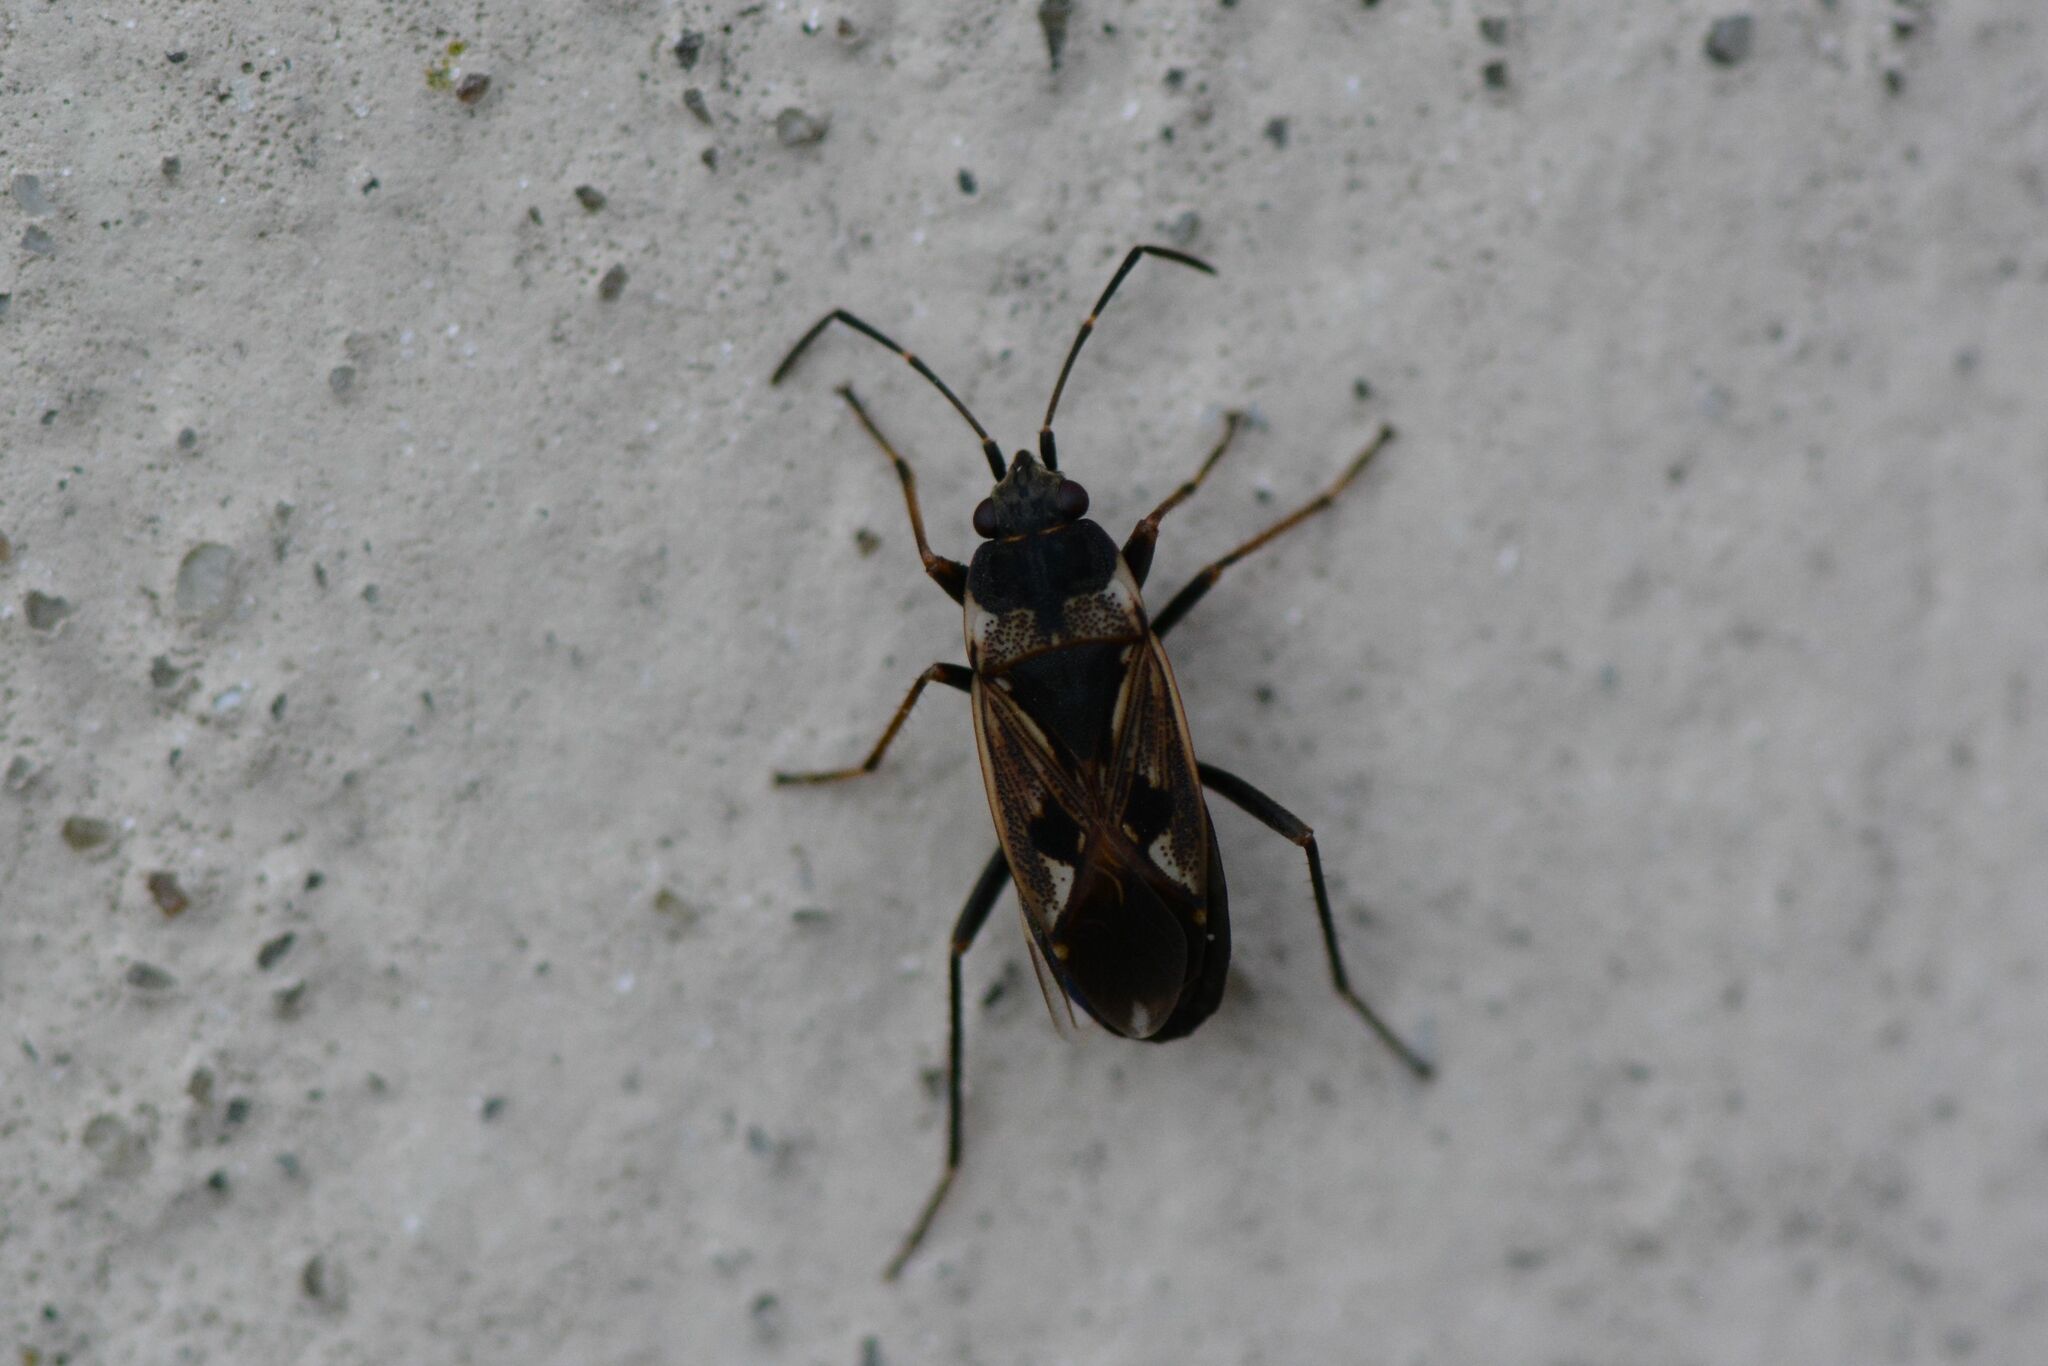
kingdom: Animalia
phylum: Arthropoda
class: Insecta
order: Hemiptera
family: Rhyparochromidae
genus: Rhyparochromus
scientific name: Rhyparochromus vulgaris
